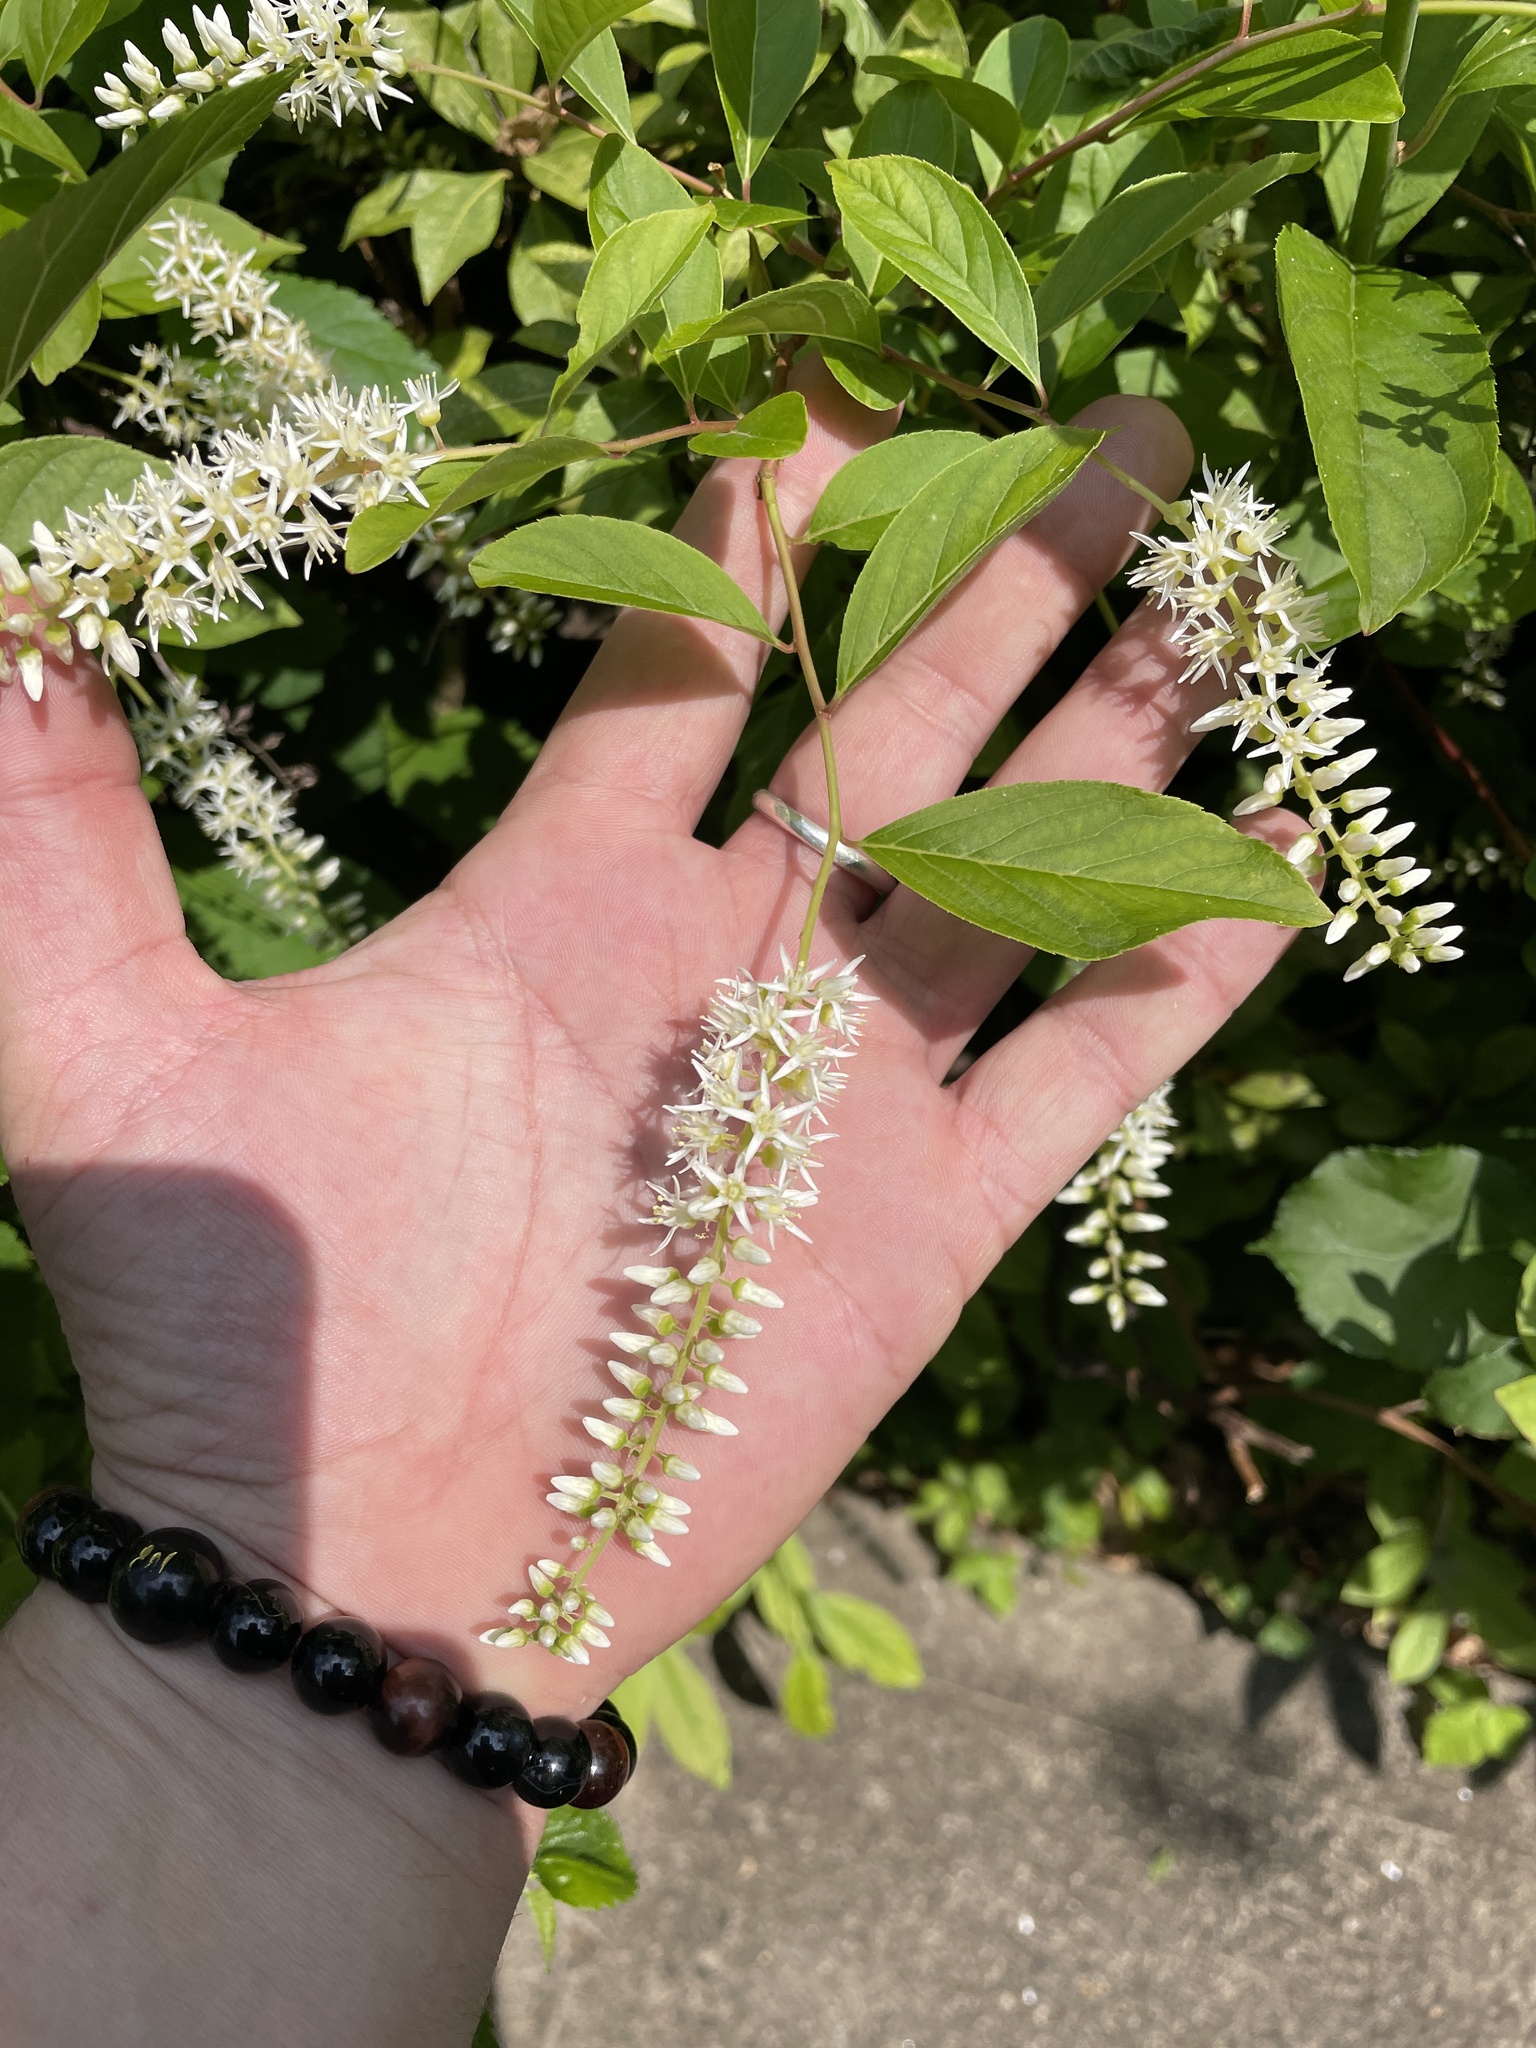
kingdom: Plantae
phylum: Tracheophyta
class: Magnoliopsida
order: Saxifragales
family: Iteaceae
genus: Itea
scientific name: Itea virginica
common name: Sweetspire
